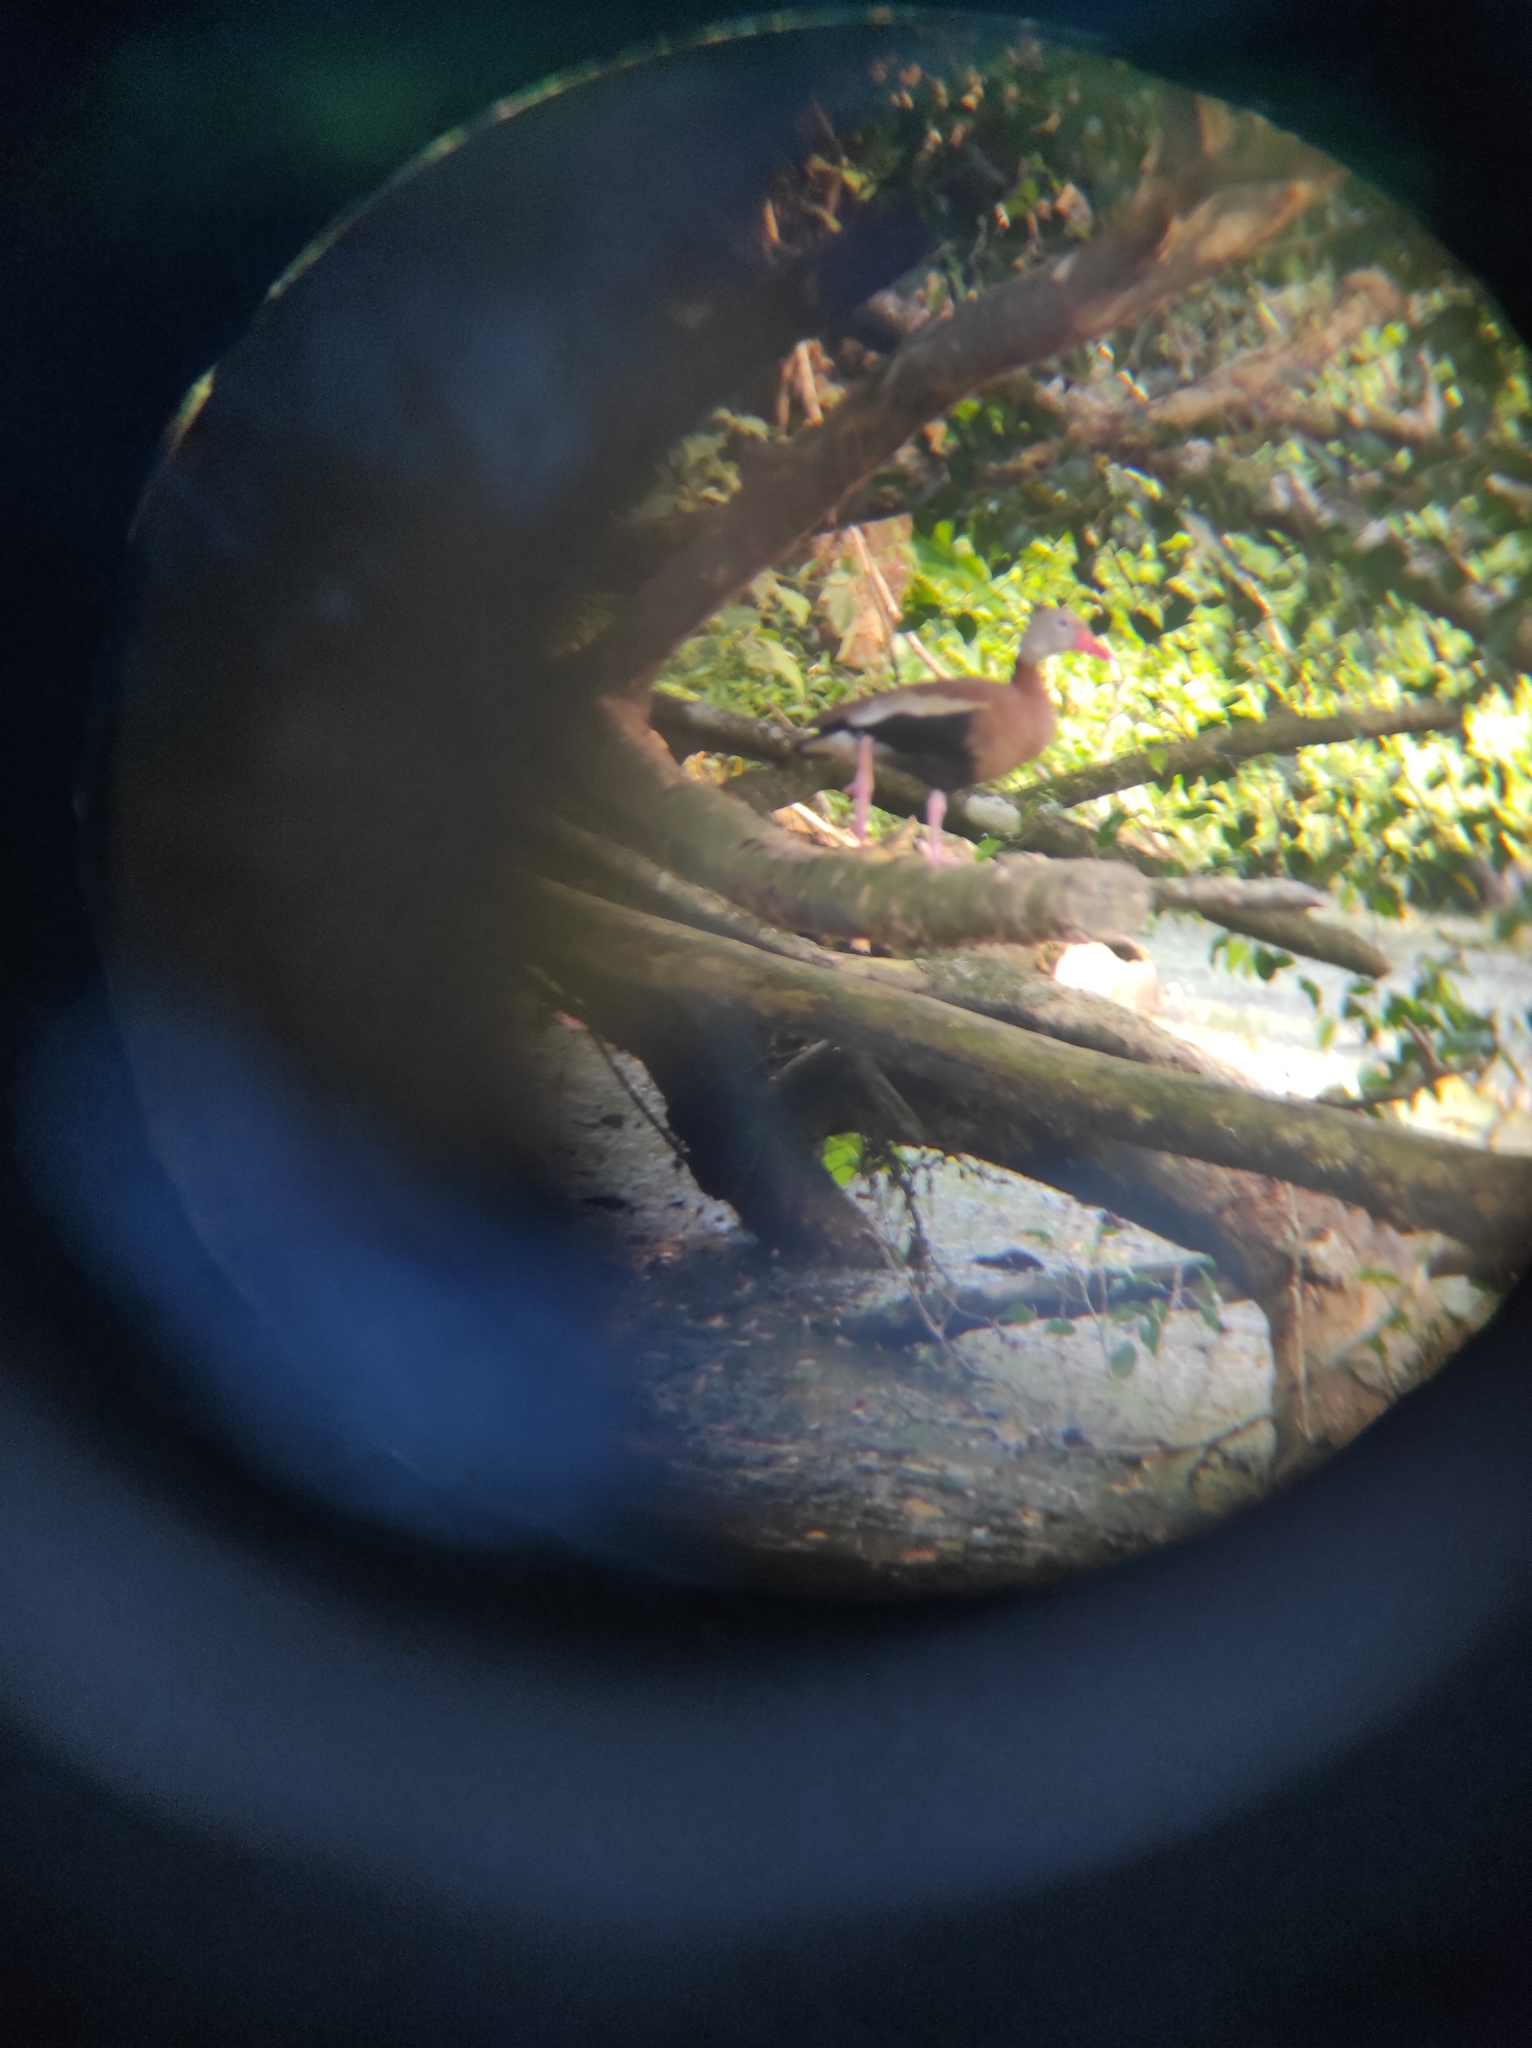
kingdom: Animalia
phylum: Chordata
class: Aves
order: Anseriformes
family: Anatidae
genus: Dendrocygna
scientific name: Dendrocygna autumnalis
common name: Black-bellied whistling duck
